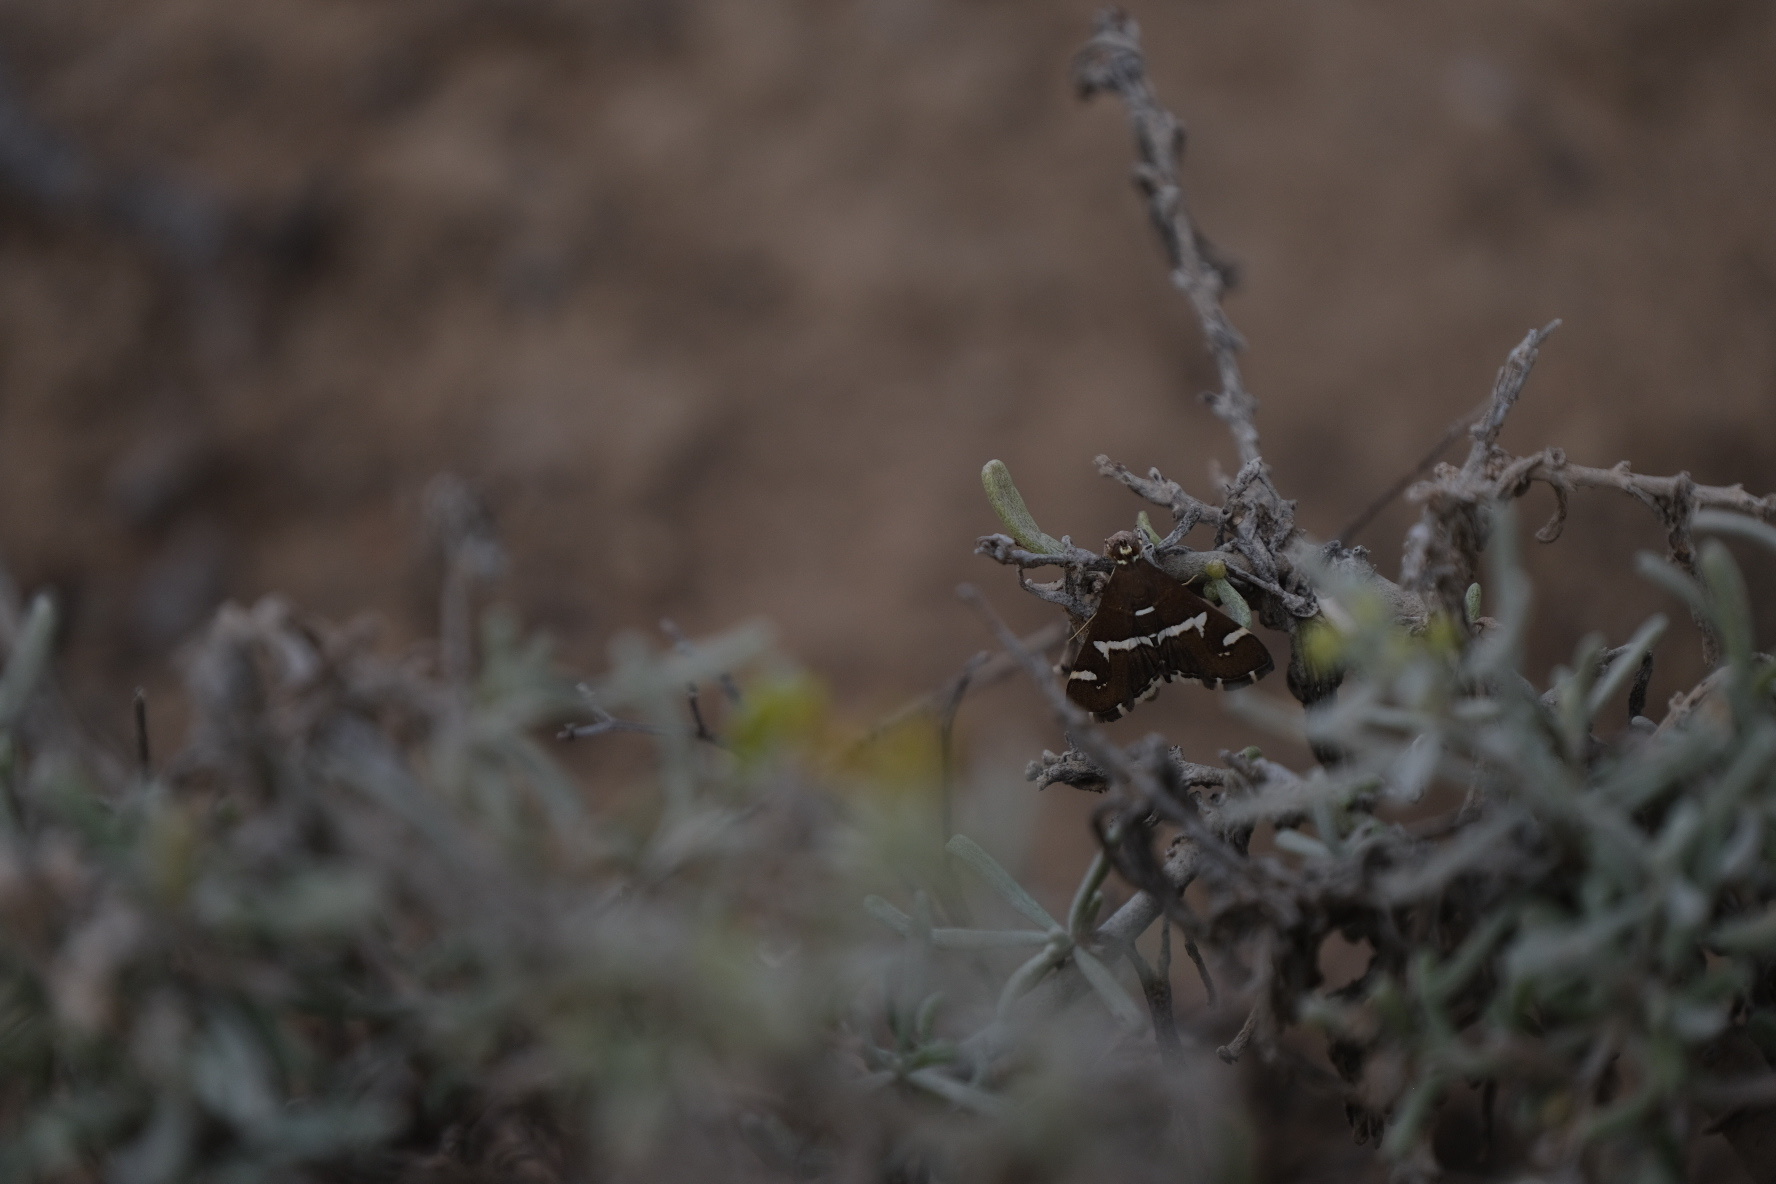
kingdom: Animalia
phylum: Arthropoda
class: Insecta
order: Lepidoptera
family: Crambidae
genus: Spoladea
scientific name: Spoladea recurvalis
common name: Beet webworm moth
